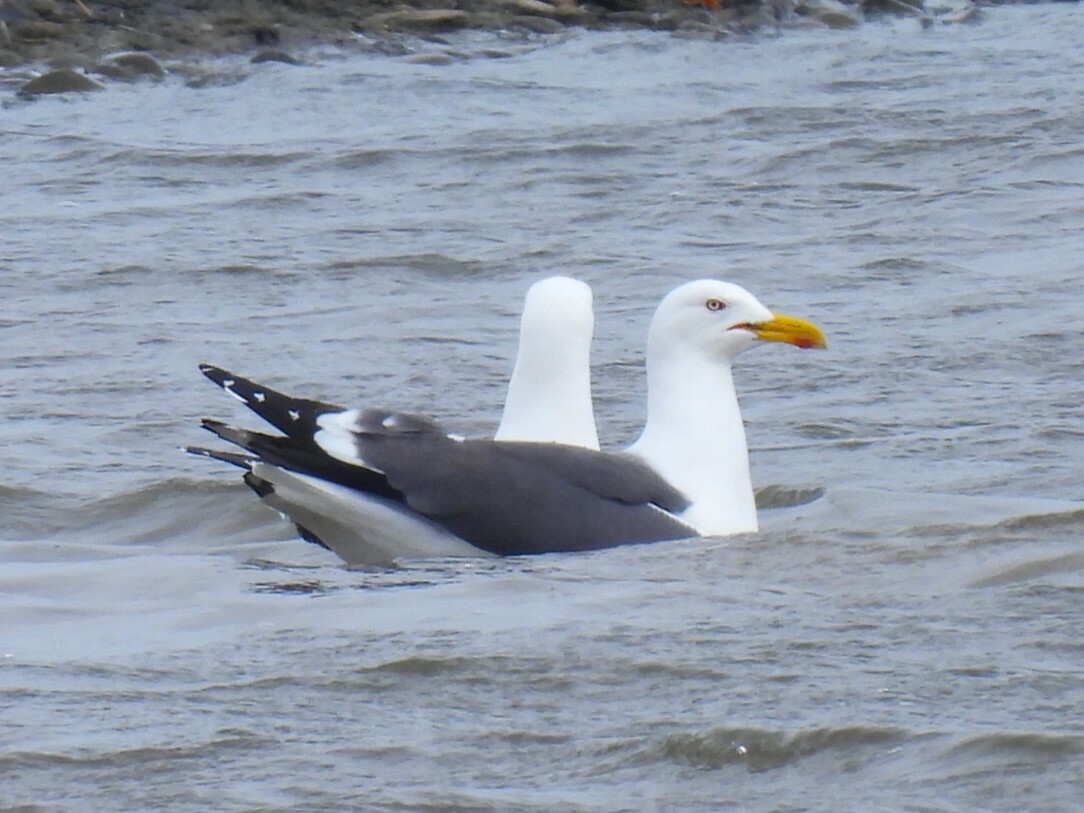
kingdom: Animalia
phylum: Chordata
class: Aves
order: Charadriiformes
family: Laridae
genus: Larus
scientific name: Larus fuscus
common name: Lesser black-backed gull
